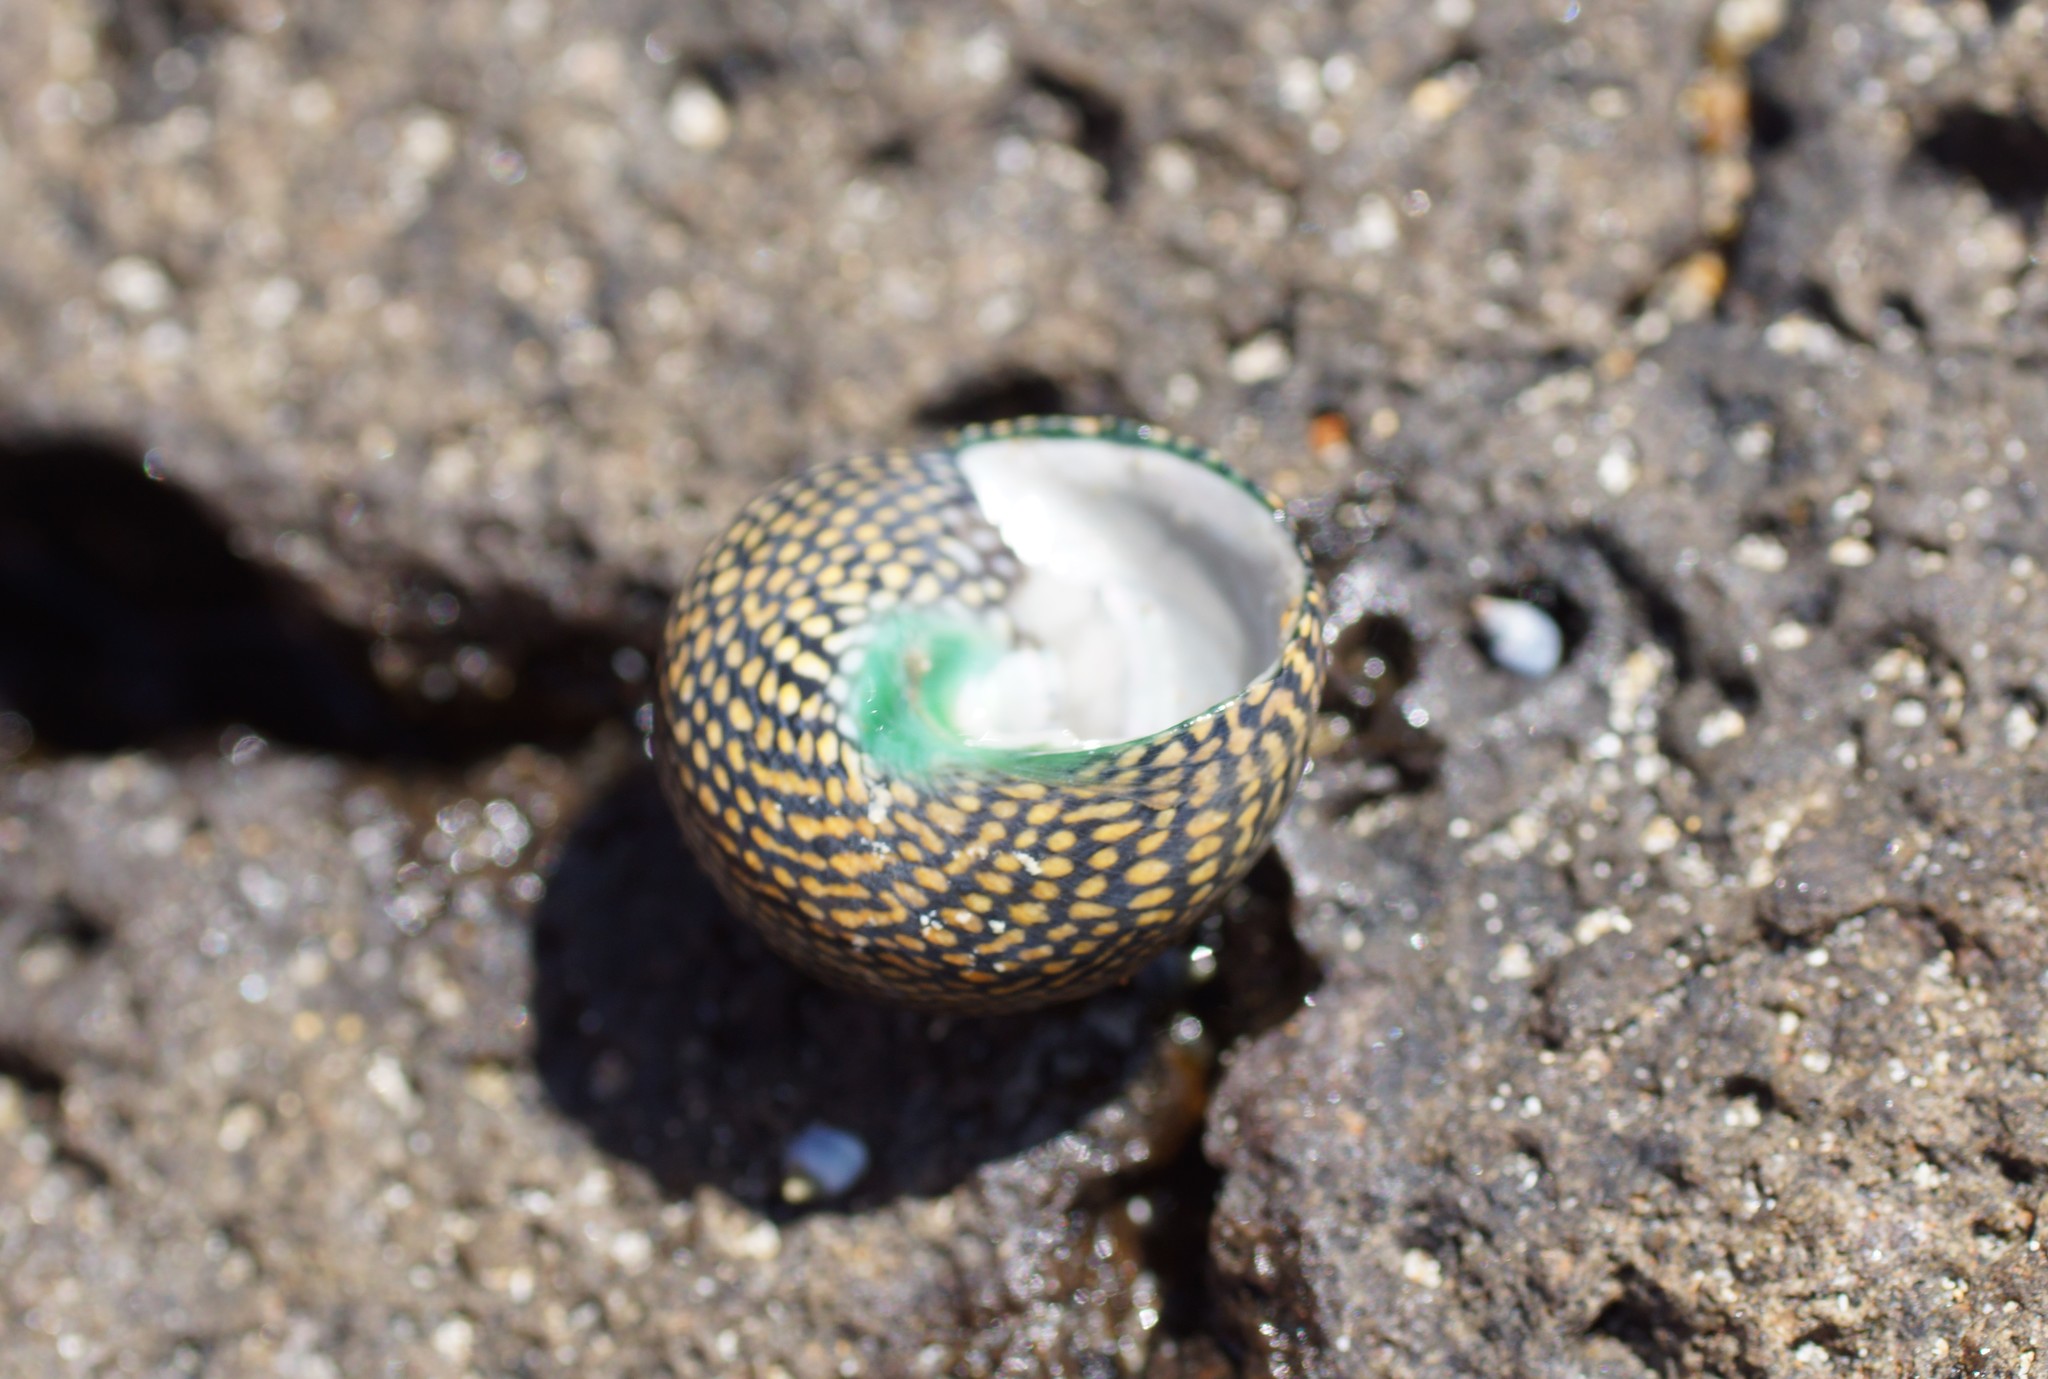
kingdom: Animalia
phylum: Mollusca
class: Gastropoda
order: Trochida
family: Trochidae
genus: Chlorodiloma
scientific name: Chlorodiloma odontis
